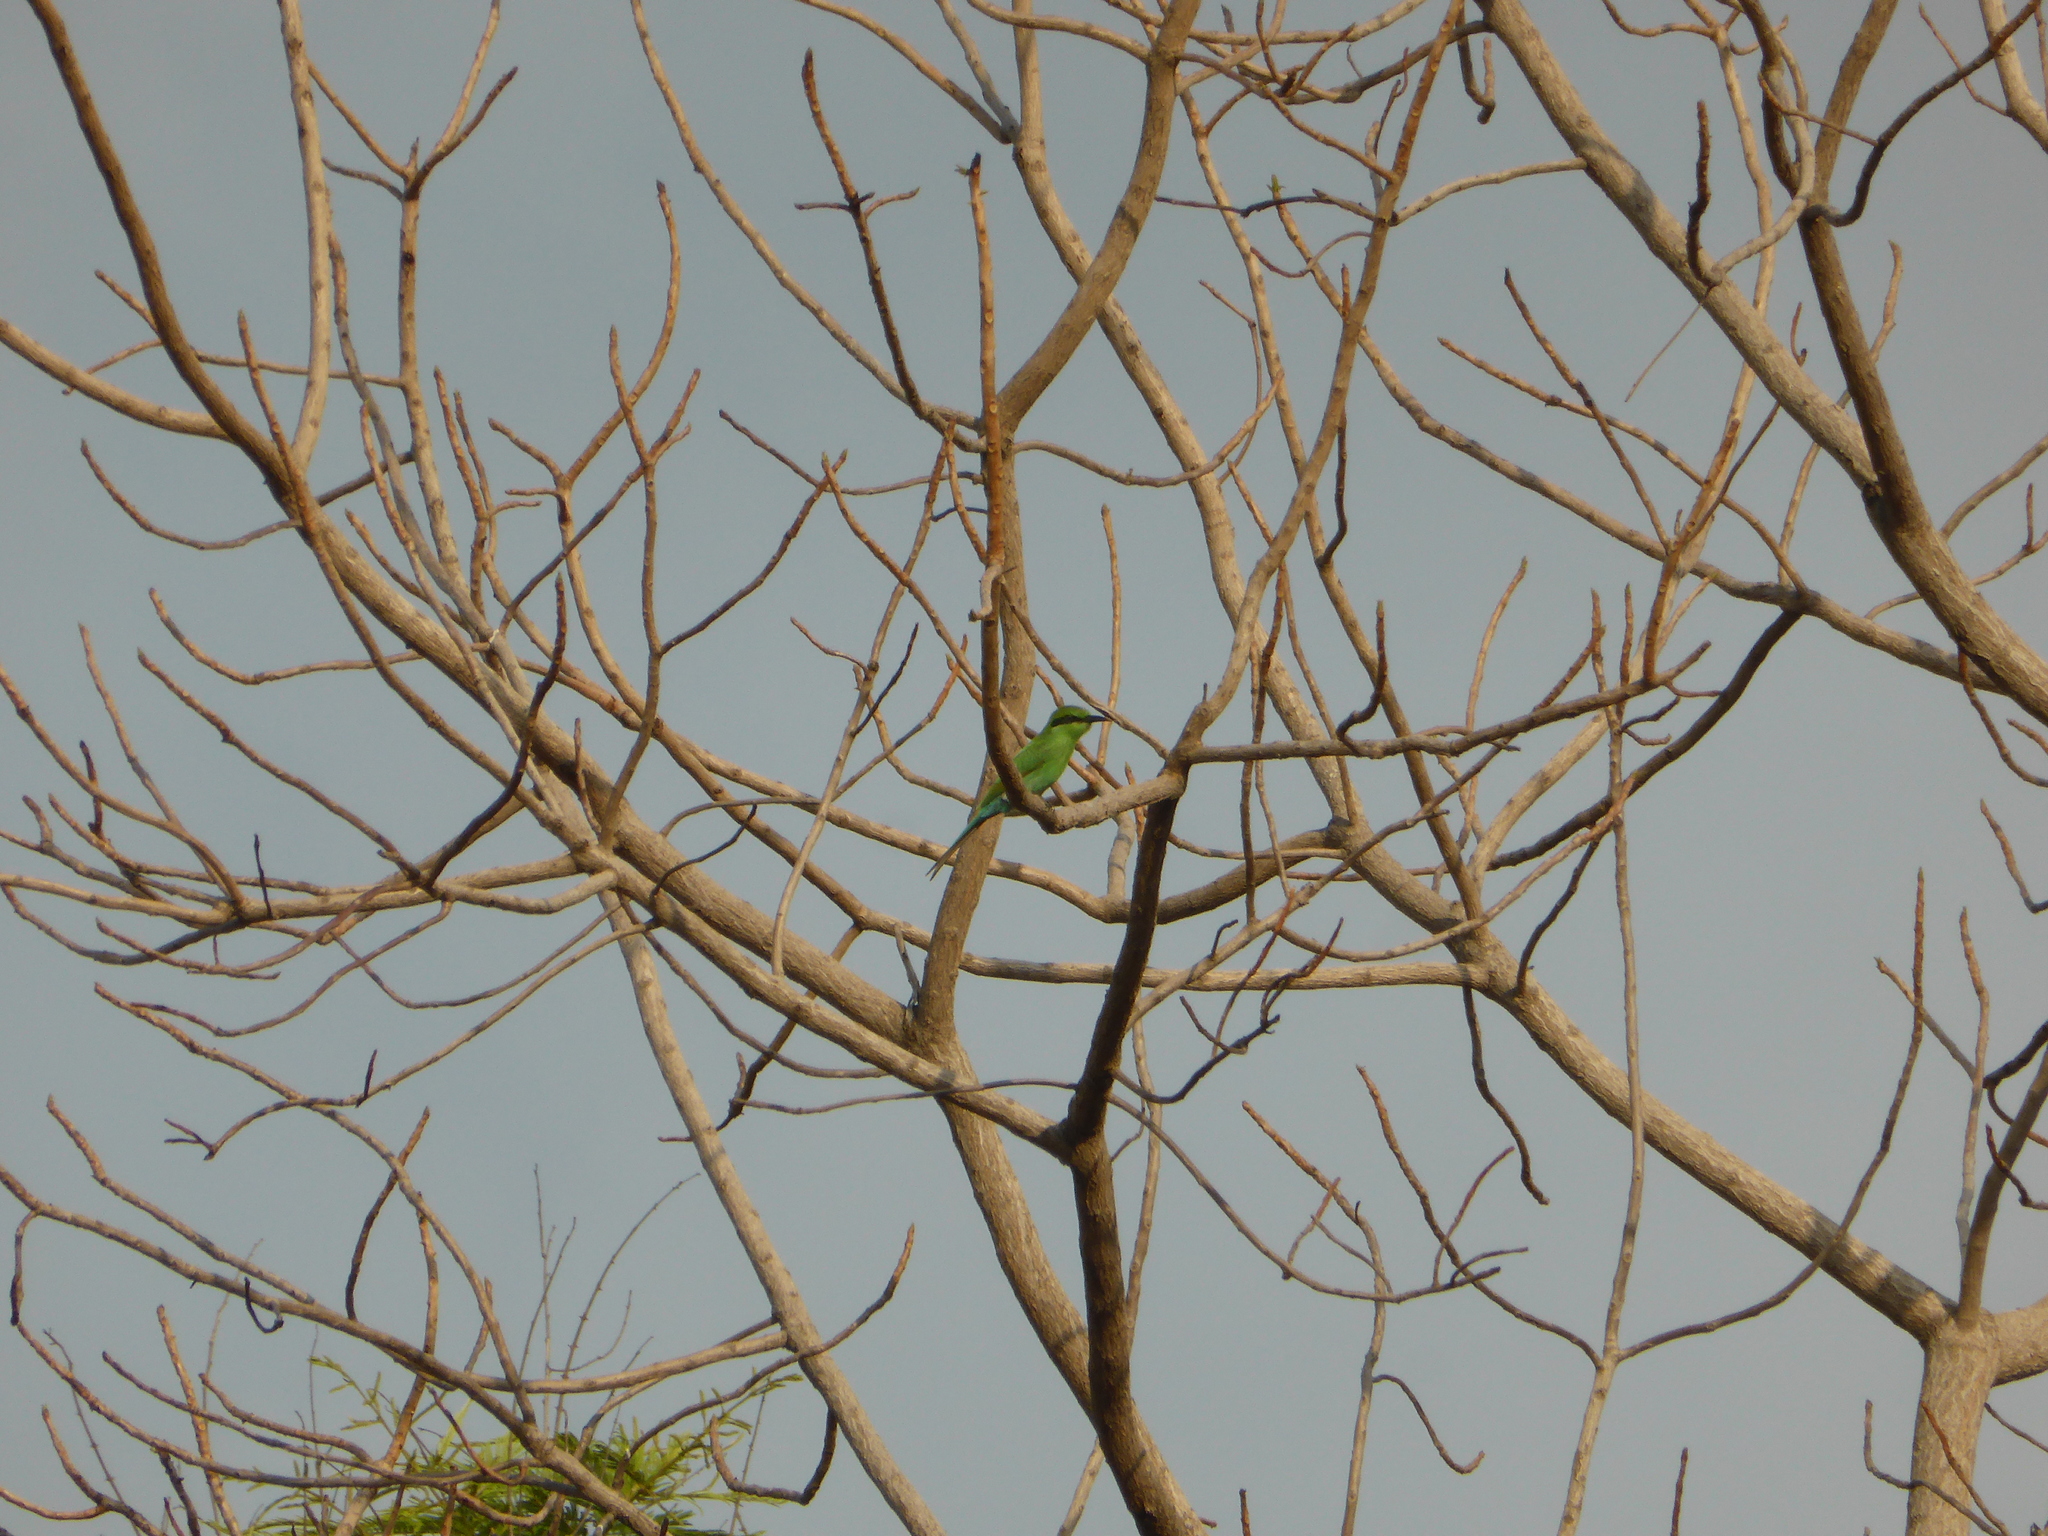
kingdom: Animalia
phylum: Chordata
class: Aves
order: Coraciiformes
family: Meropidae
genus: Merops
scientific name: Merops hirundineus
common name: Swallow-tailed bee-eater
